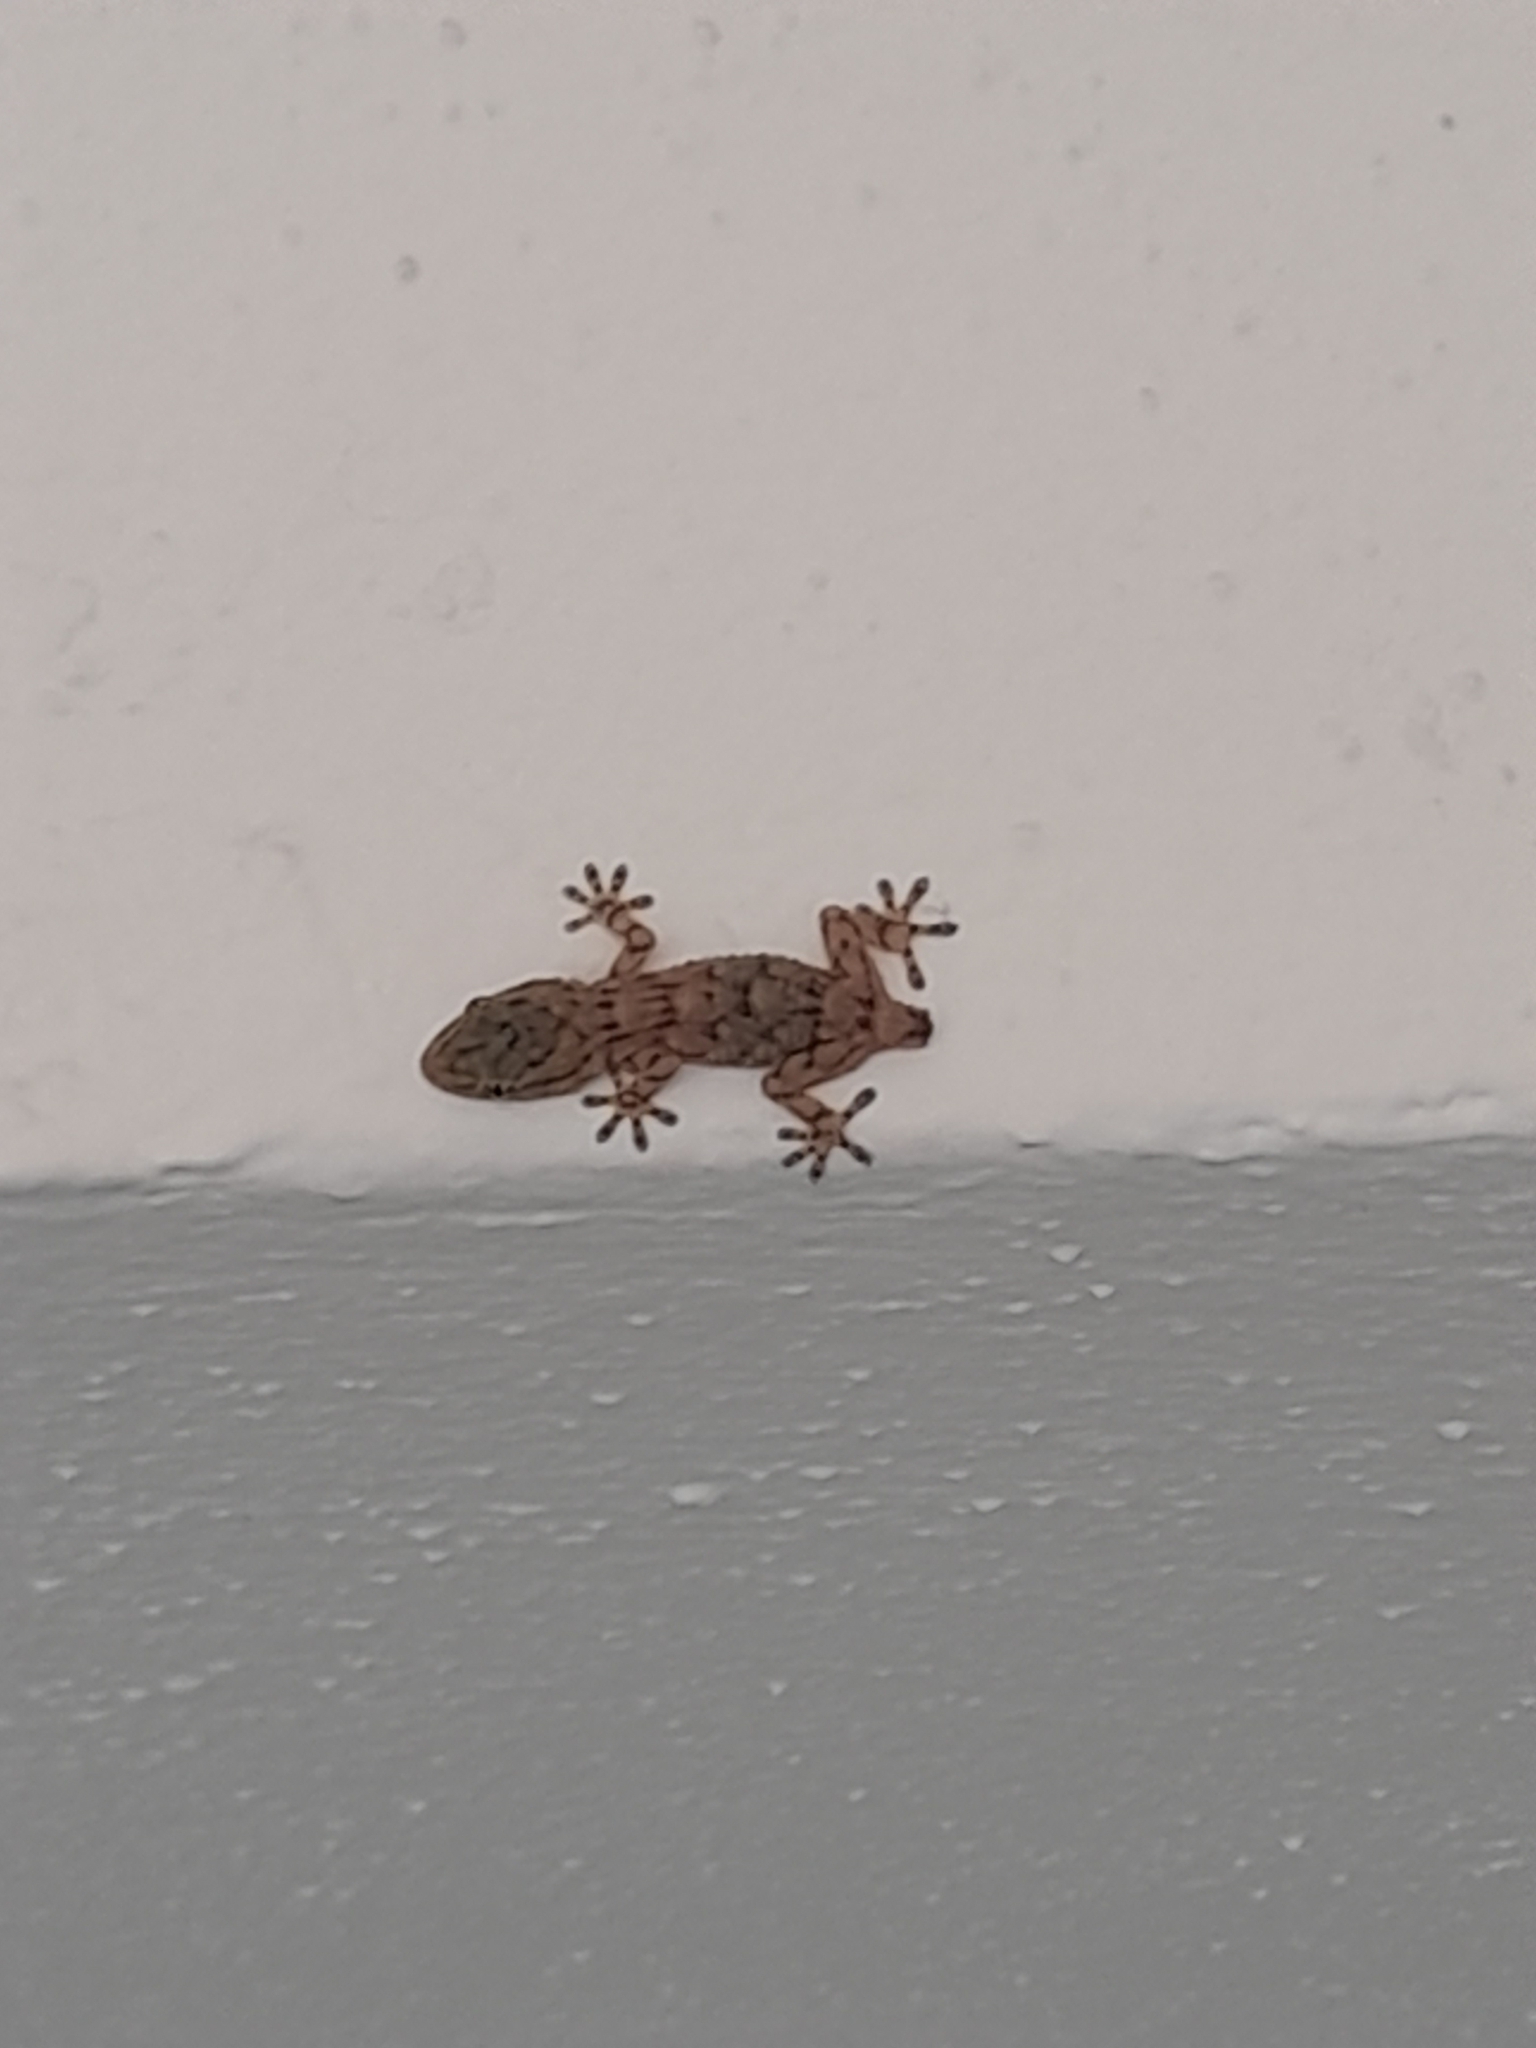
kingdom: Animalia
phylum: Chordata
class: Squamata
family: Phyllodactylidae
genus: Tarentola
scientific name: Tarentola mauritanica
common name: Moorish gecko
